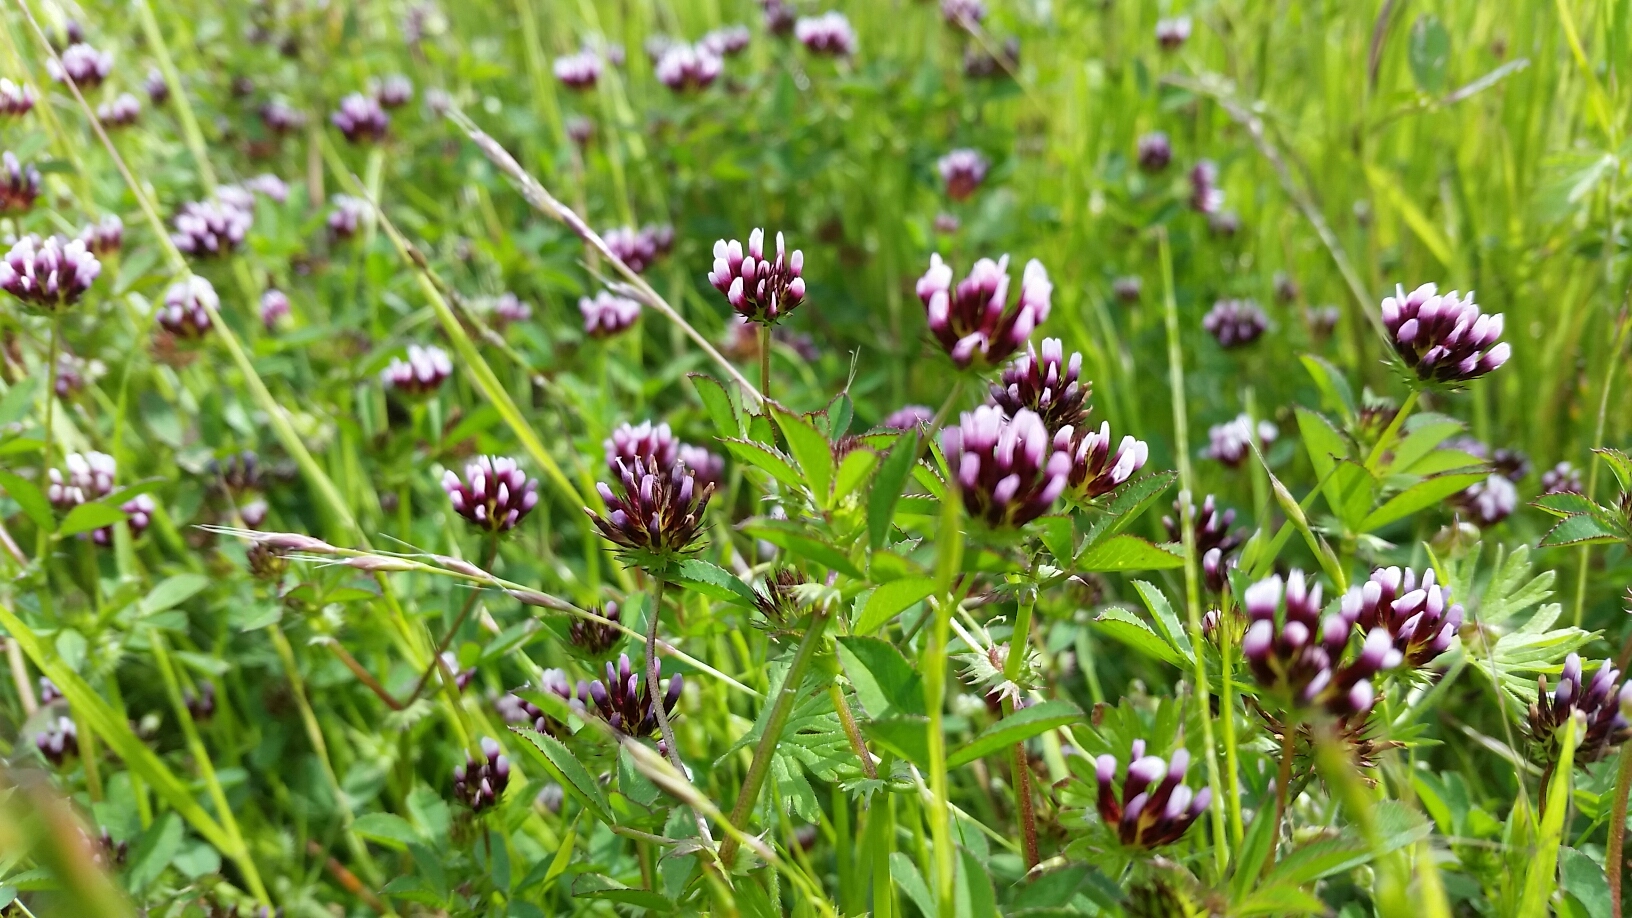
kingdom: Plantae
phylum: Tracheophyta
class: Magnoliopsida
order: Fabales
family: Fabaceae
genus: Trifolium
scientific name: Trifolium variegatum
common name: Whitetip clover
